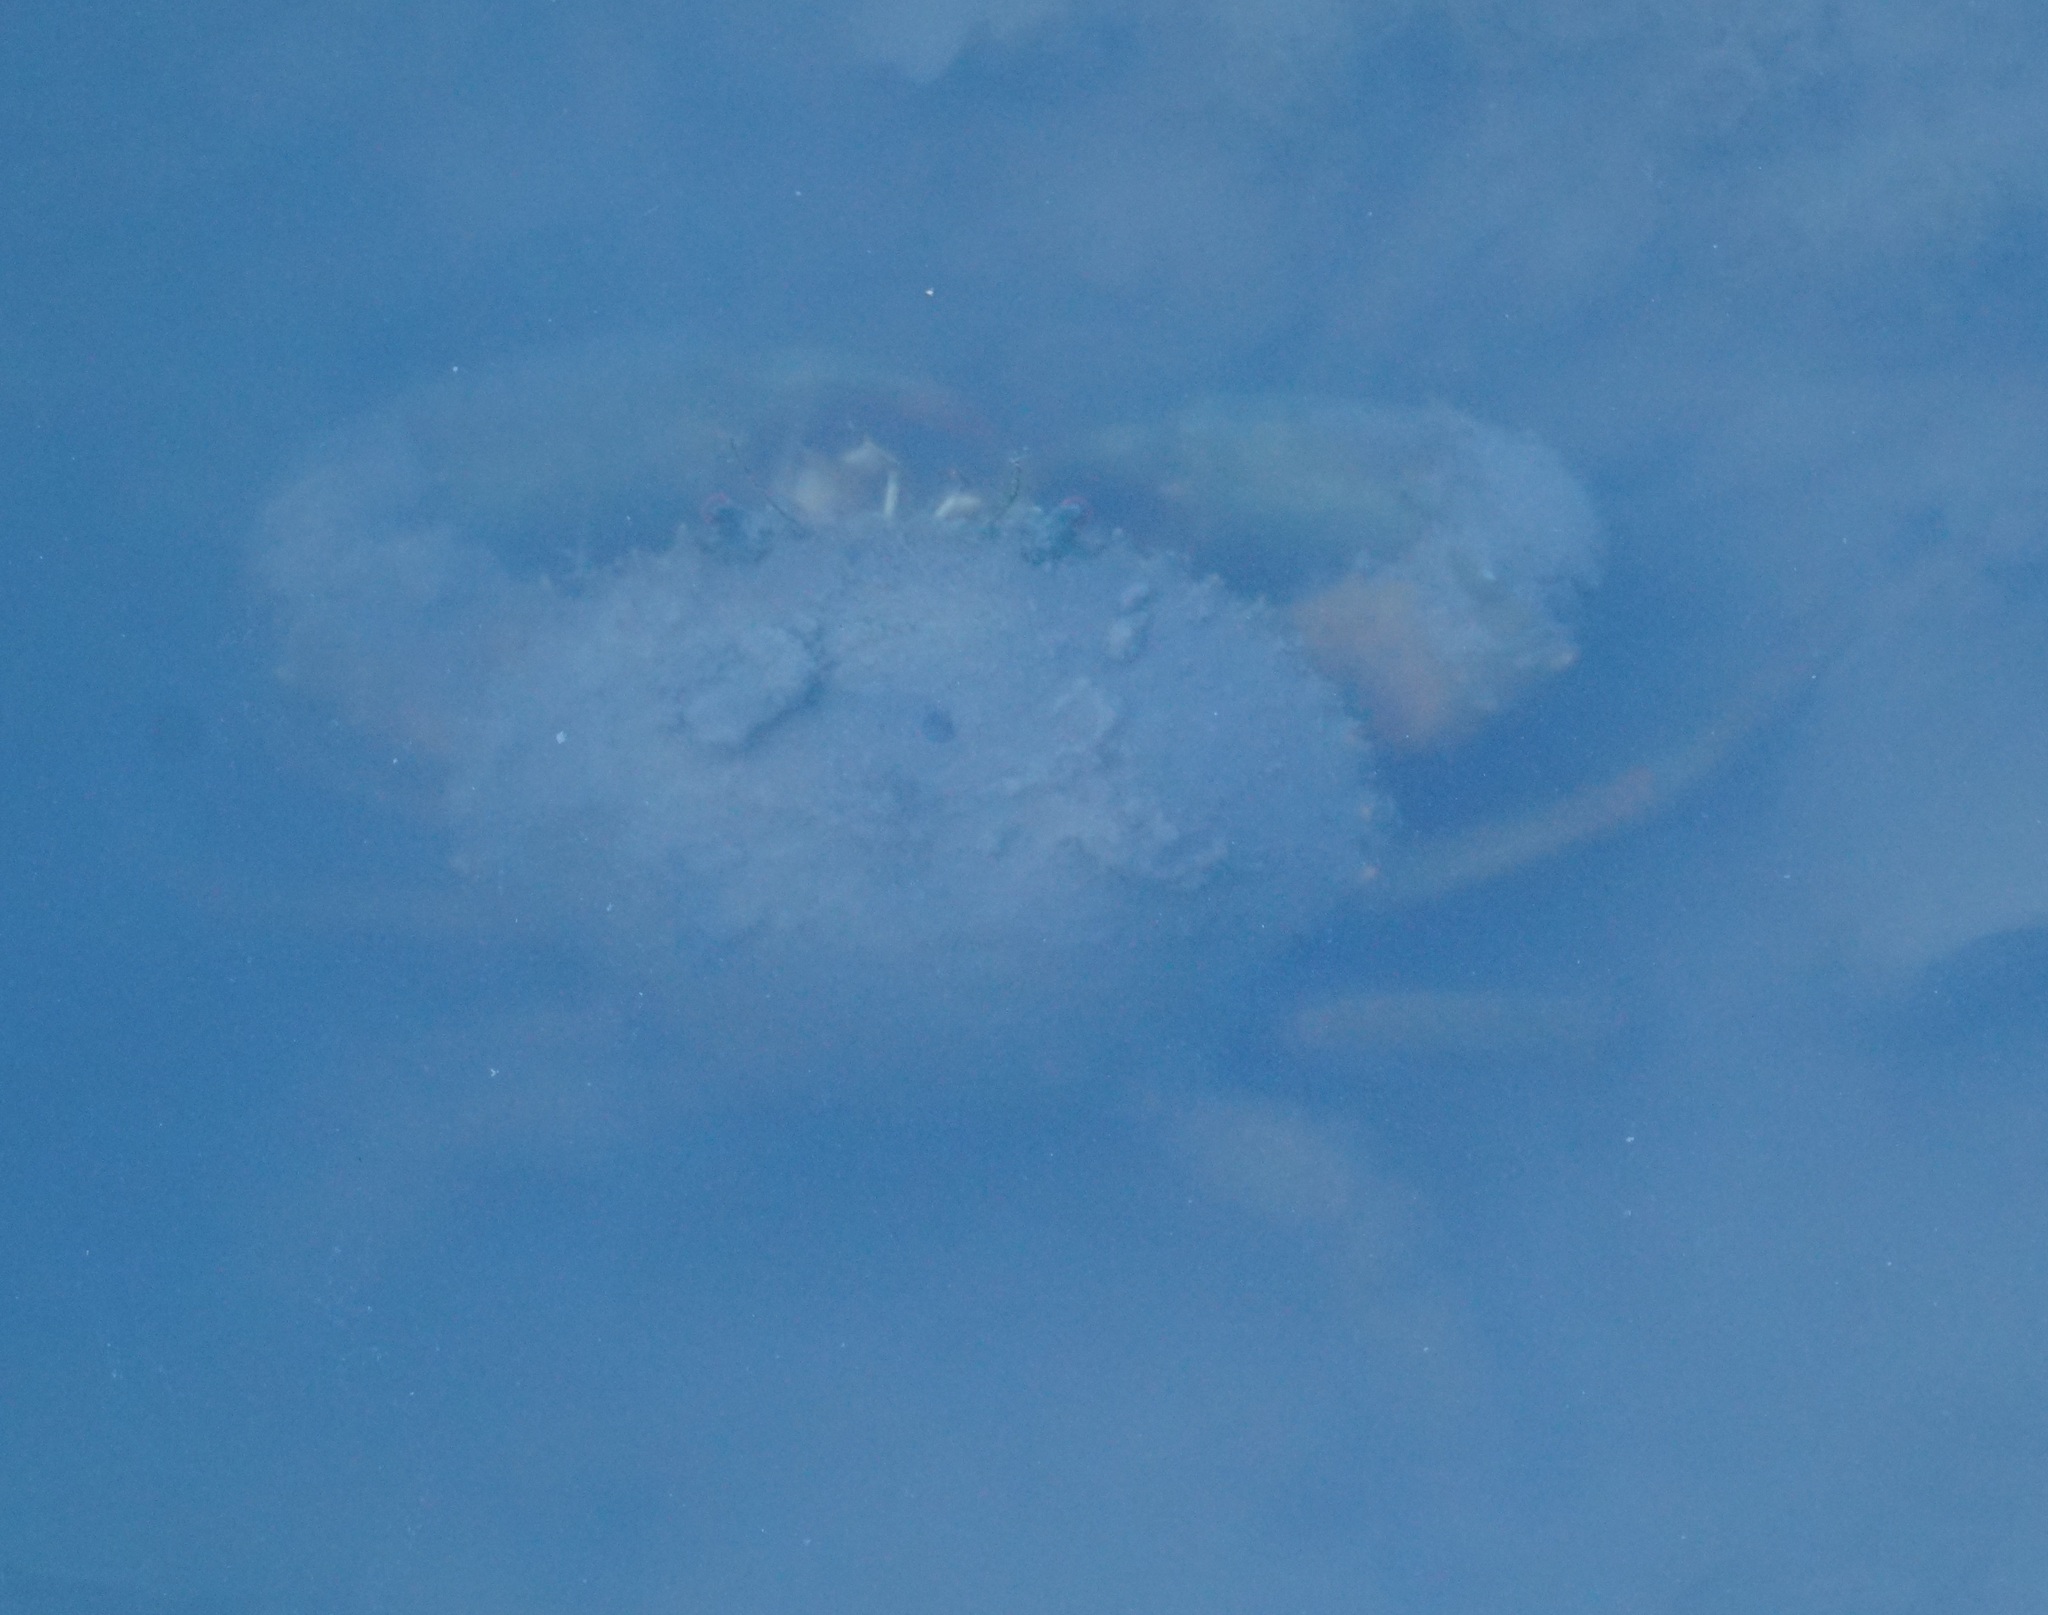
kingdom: Animalia
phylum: Arthropoda
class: Malacostraca
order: Decapoda
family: Portunidae
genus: Scylla
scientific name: Scylla serrata
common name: Giant mud crab
